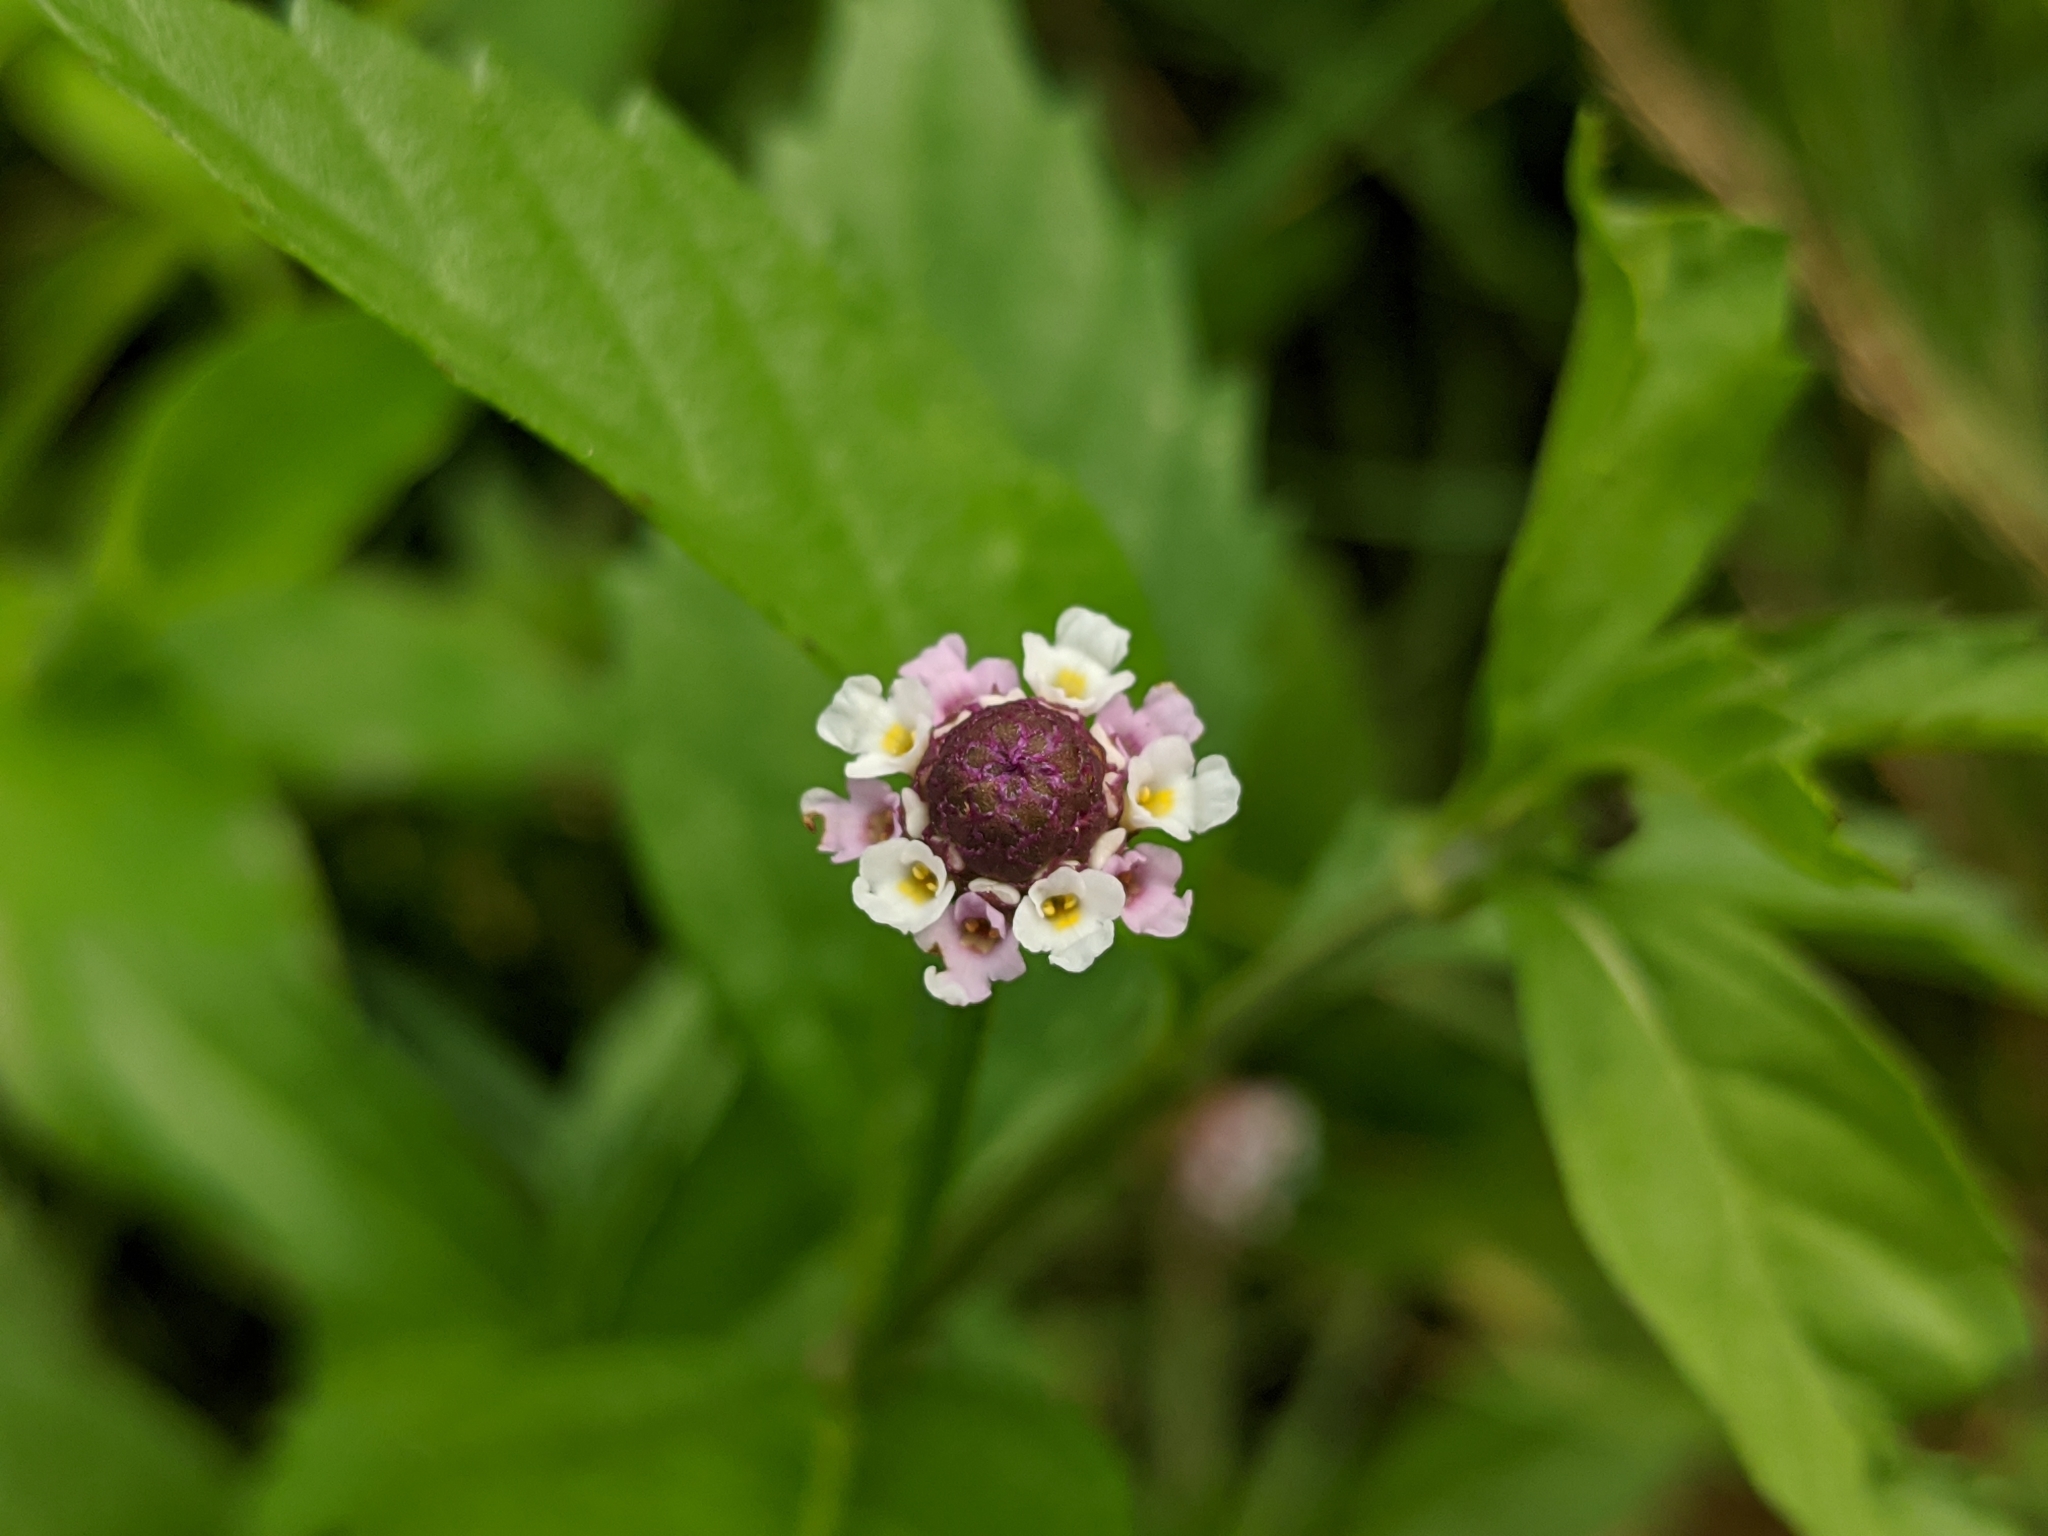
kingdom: Plantae
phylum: Tracheophyta
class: Magnoliopsida
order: Lamiales
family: Verbenaceae
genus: Phyla
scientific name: Phyla lanceolata
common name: Northern fogfruit
